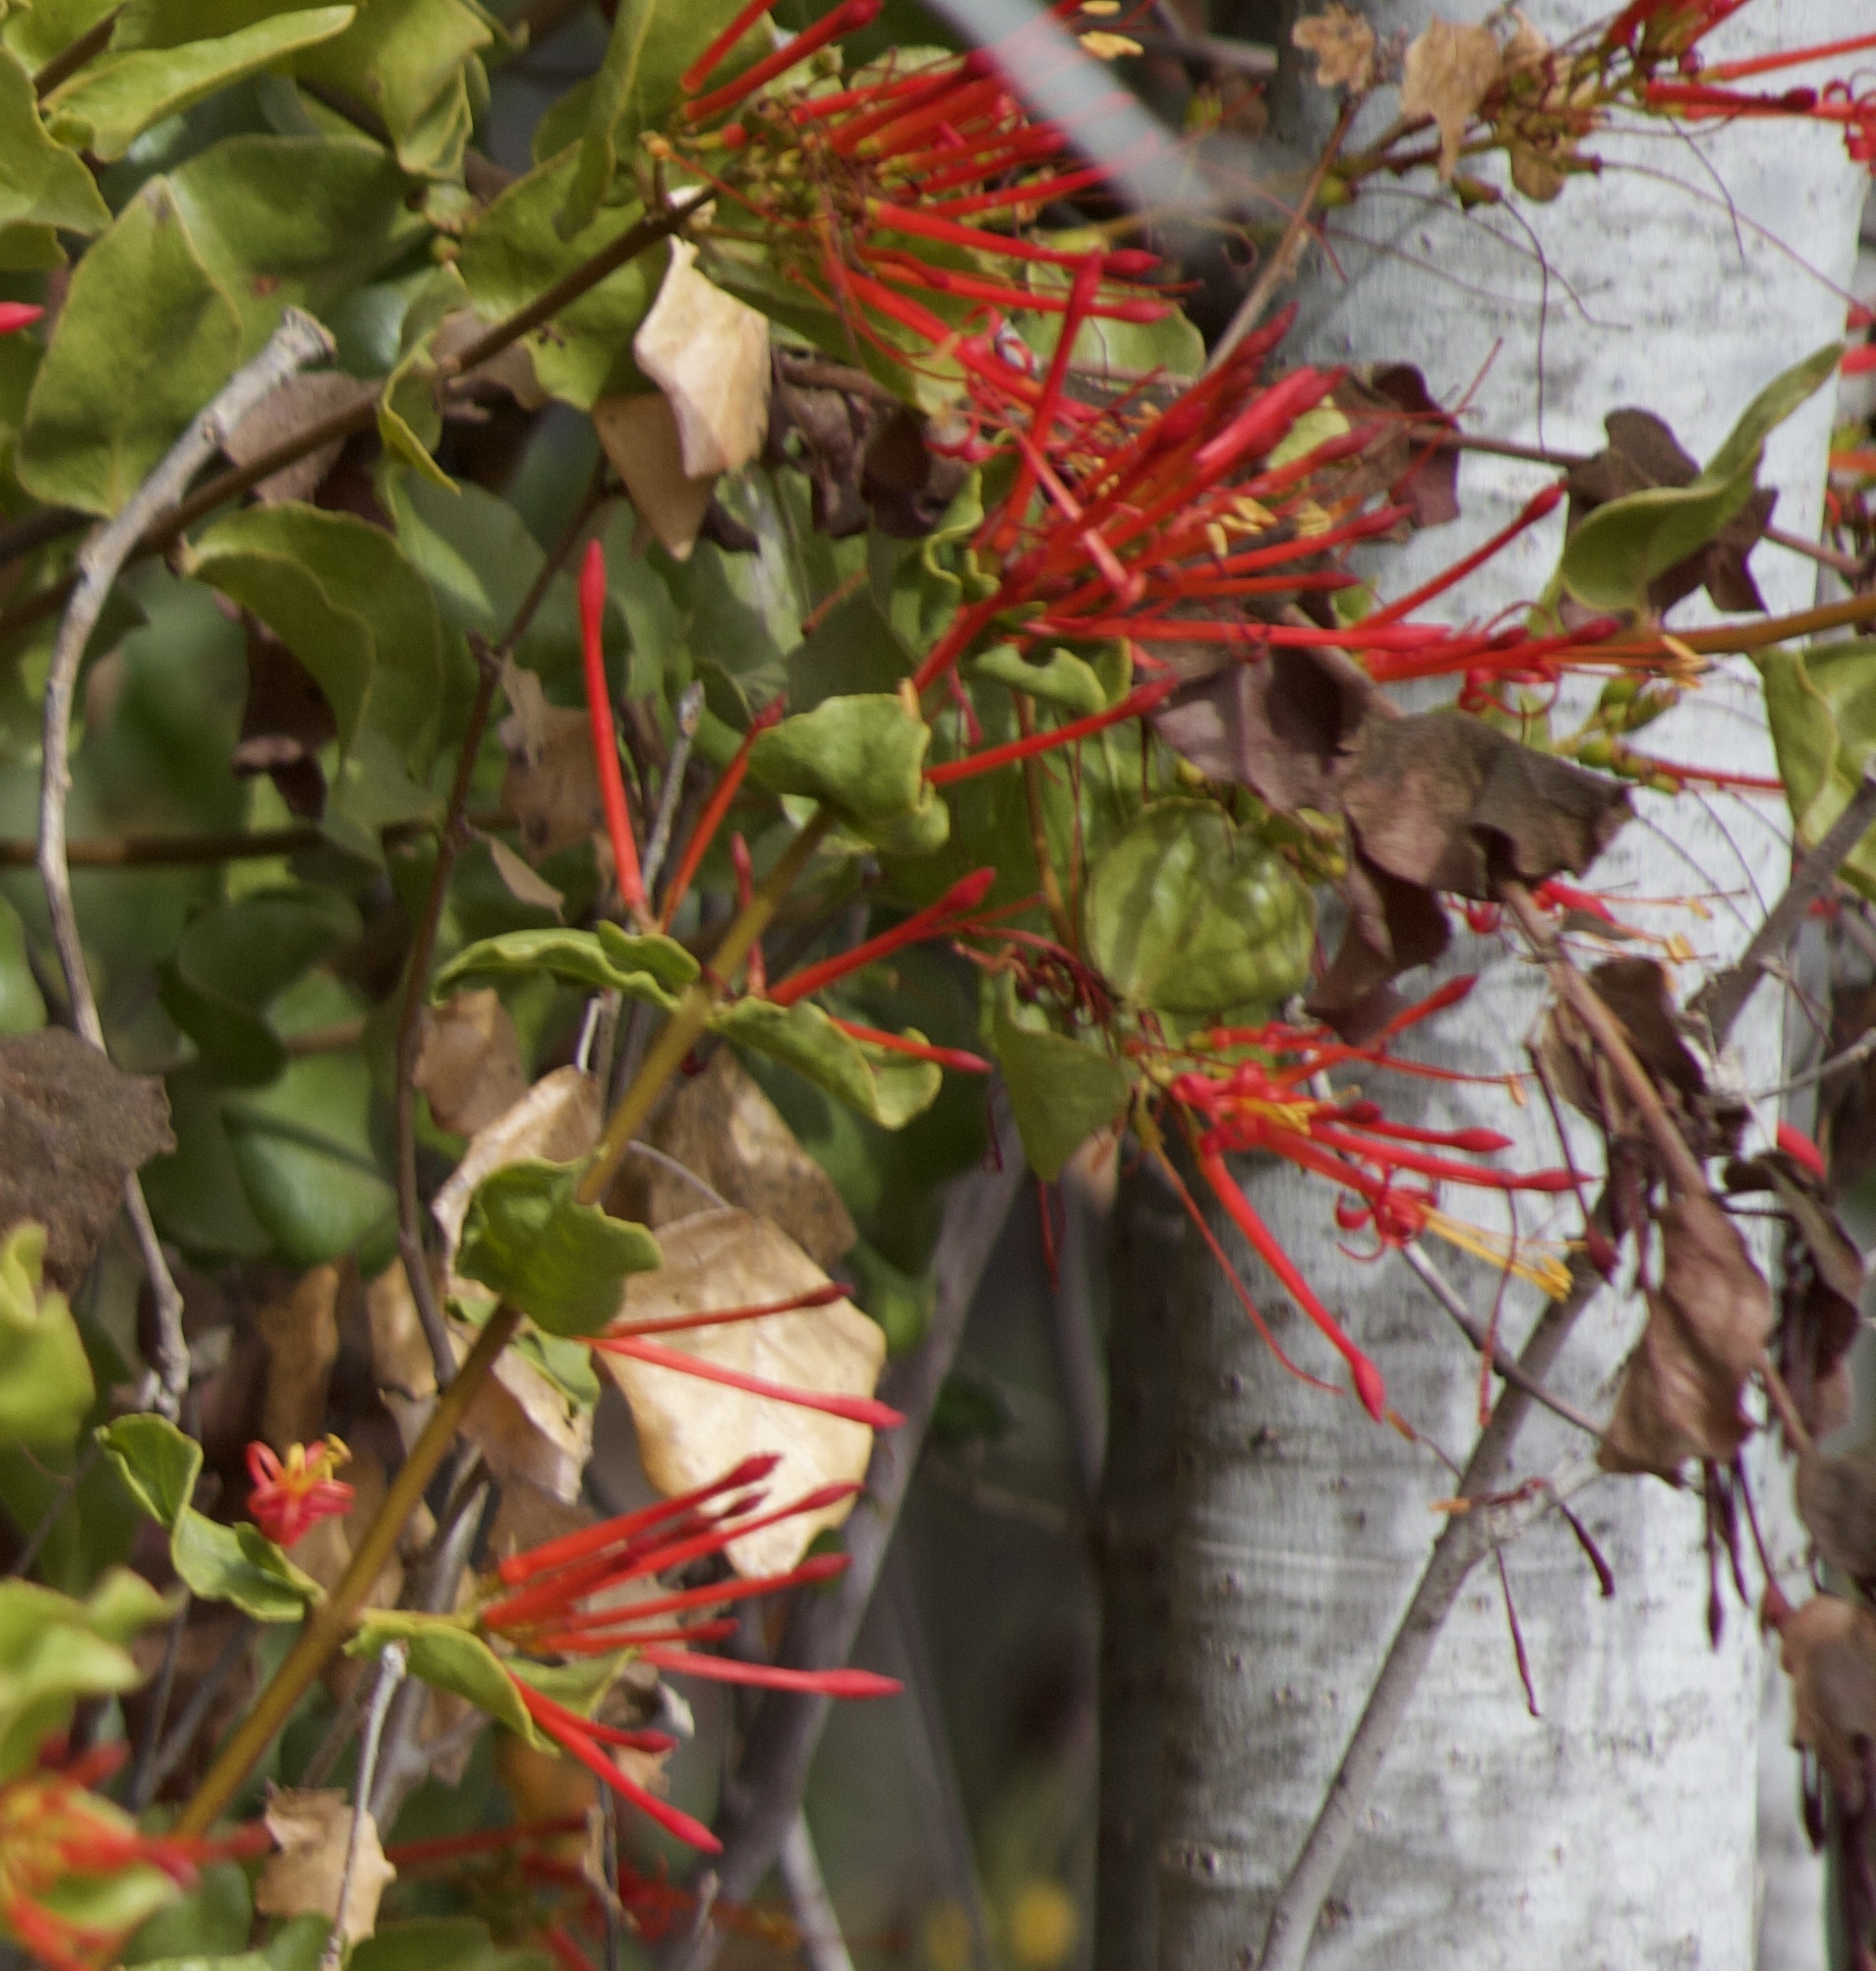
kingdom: Plantae
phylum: Tracheophyta
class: Magnoliopsida
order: Santalales
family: Loranthaceae
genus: Tristerix
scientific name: Tristerix corymbosus
